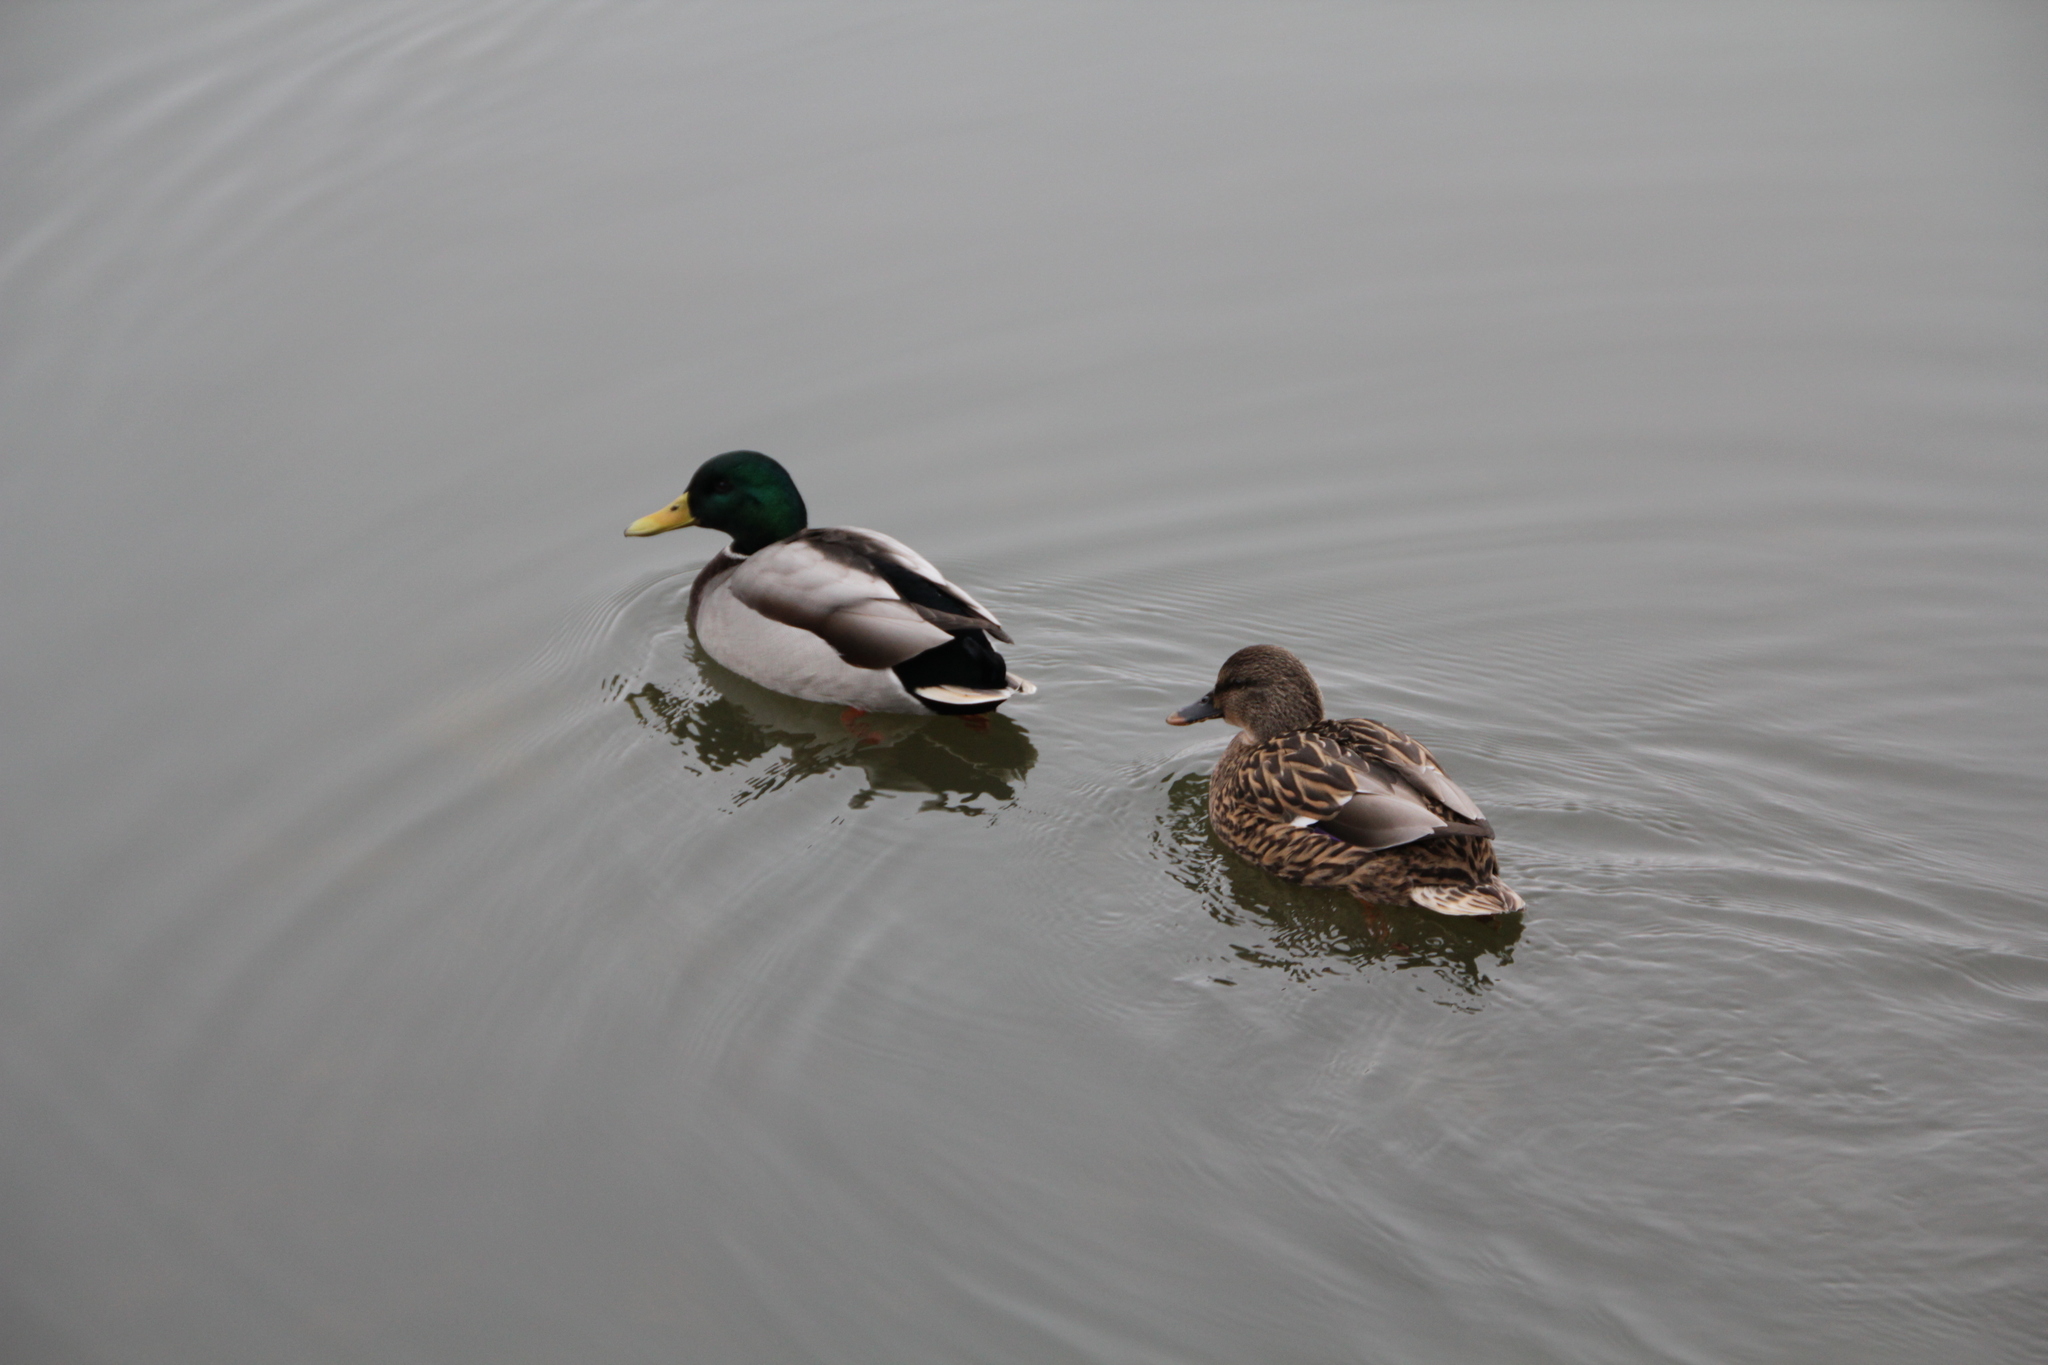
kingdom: Animalia
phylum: Chordata
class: Aves
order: Anseriformes
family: Anatidae
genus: Anas
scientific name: Anas platyrhynchos
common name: Mallard
